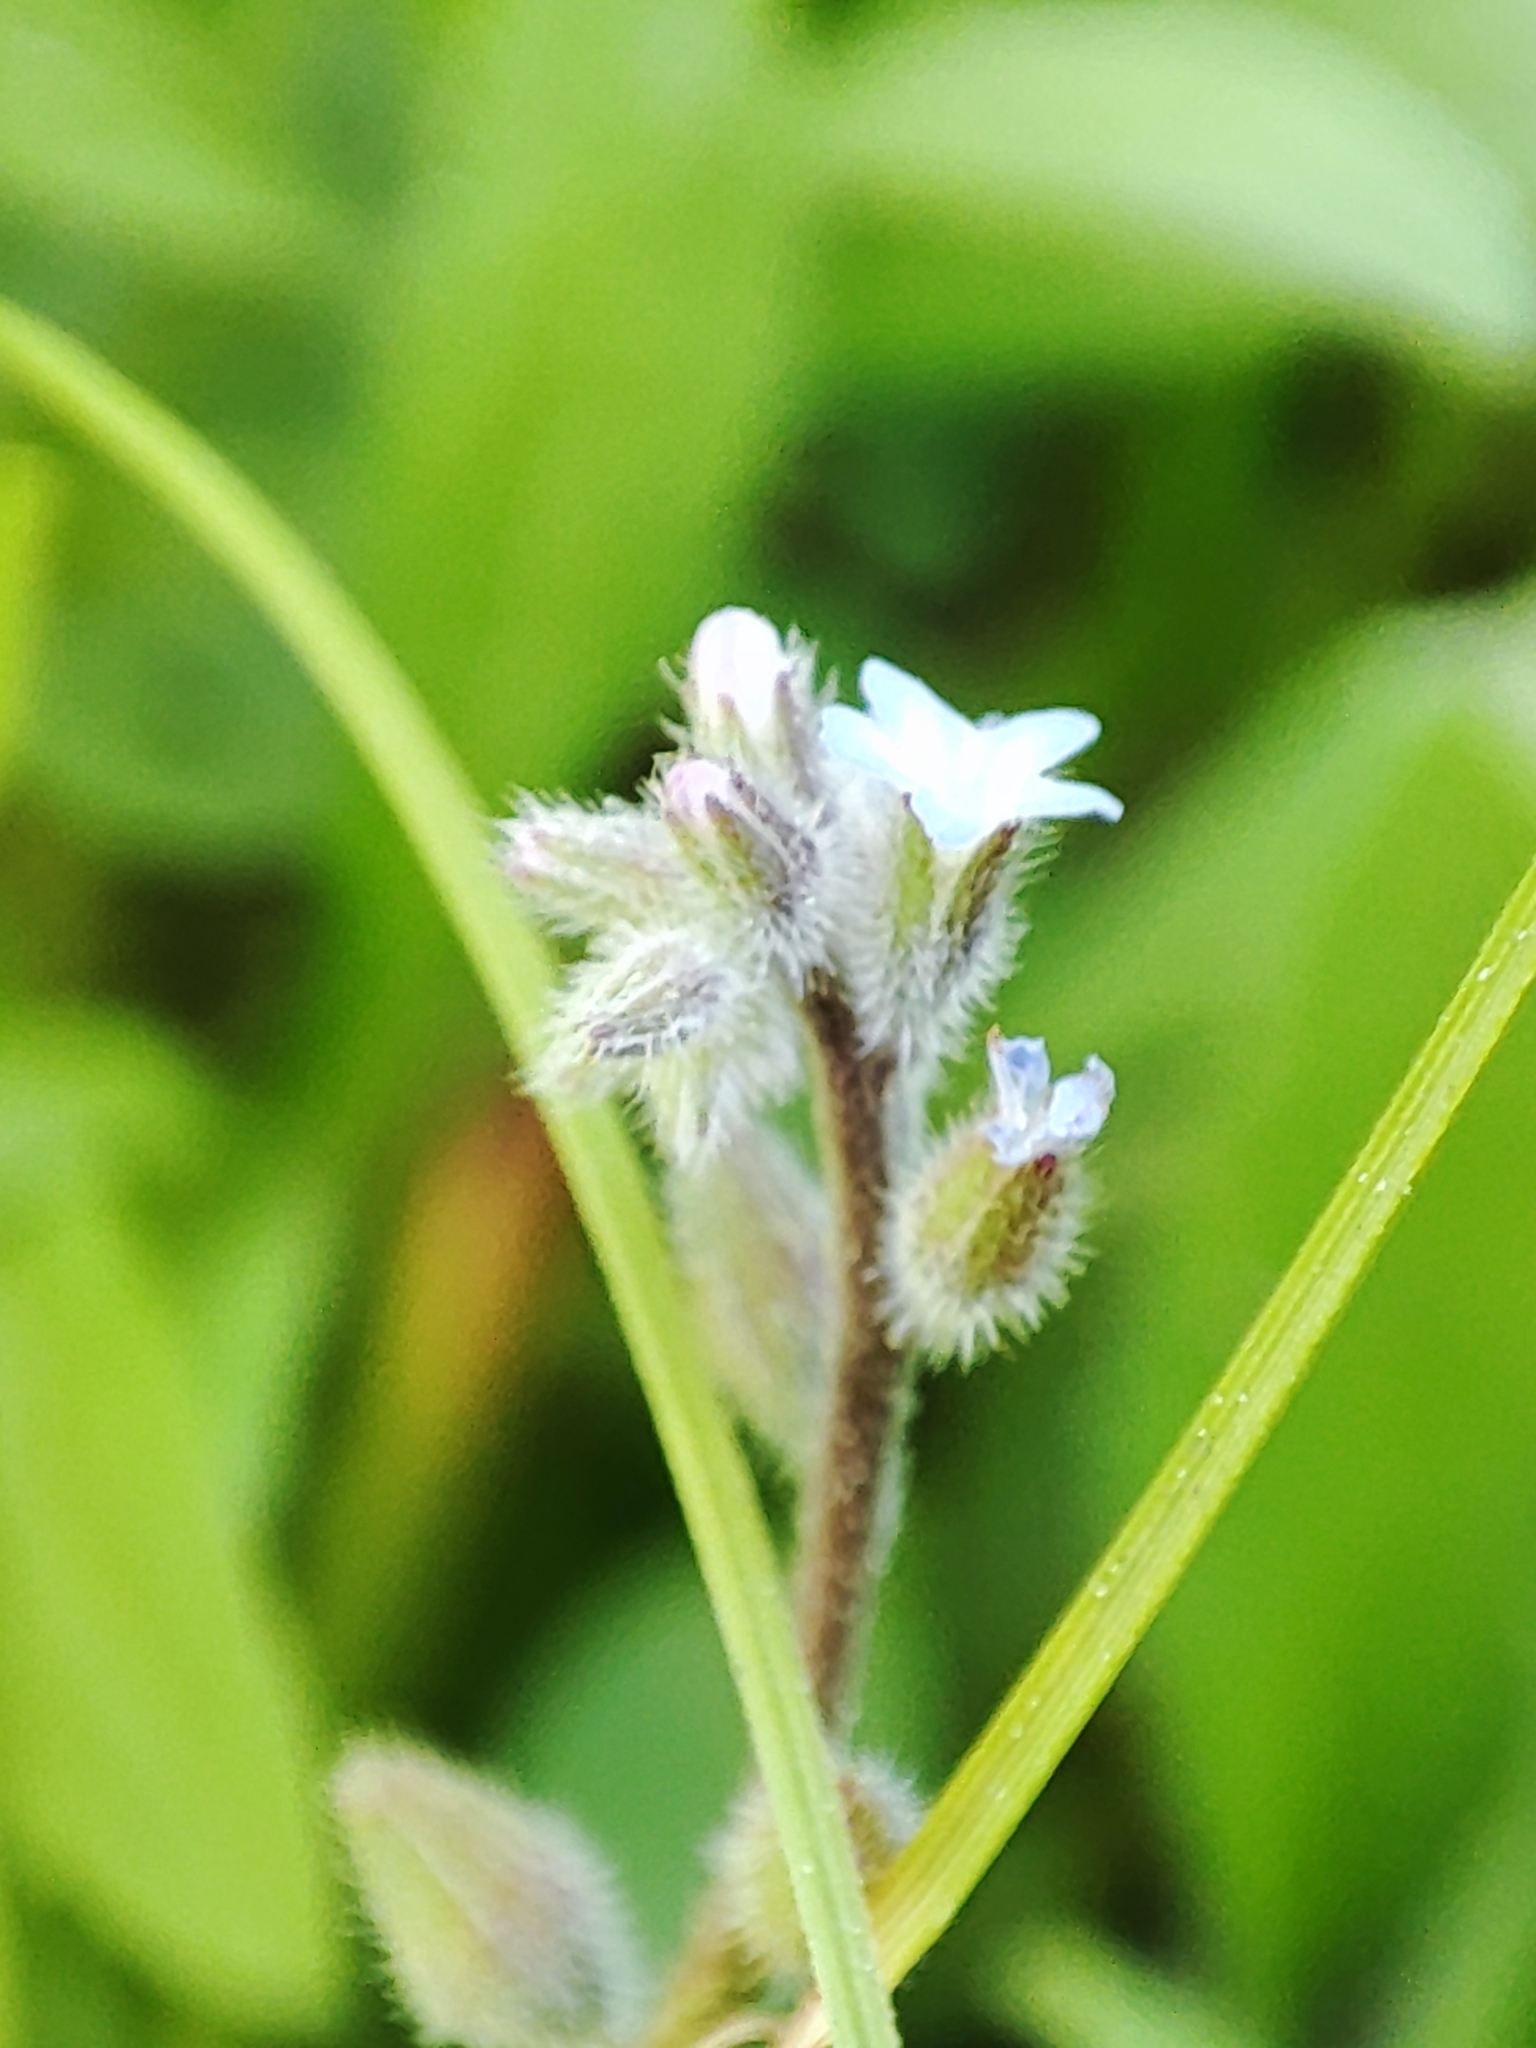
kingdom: Plantae
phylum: Tracheophyta
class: Magnoliopsida
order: Boraginales
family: Boraginaceae
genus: Myosotis
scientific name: Myosotis stricta
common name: Strict forget-me-not
